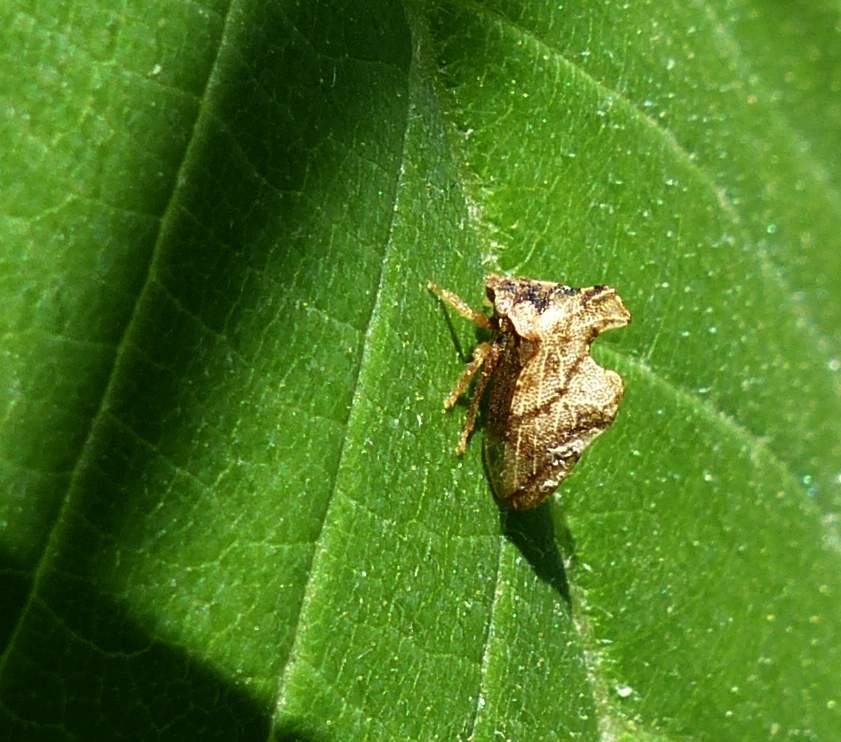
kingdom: Animalia
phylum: Arthropoda
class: Insecta
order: Hemiptera
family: Membracidae
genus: Entylia
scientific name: Entylia carinata
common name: Keeled treehopper
